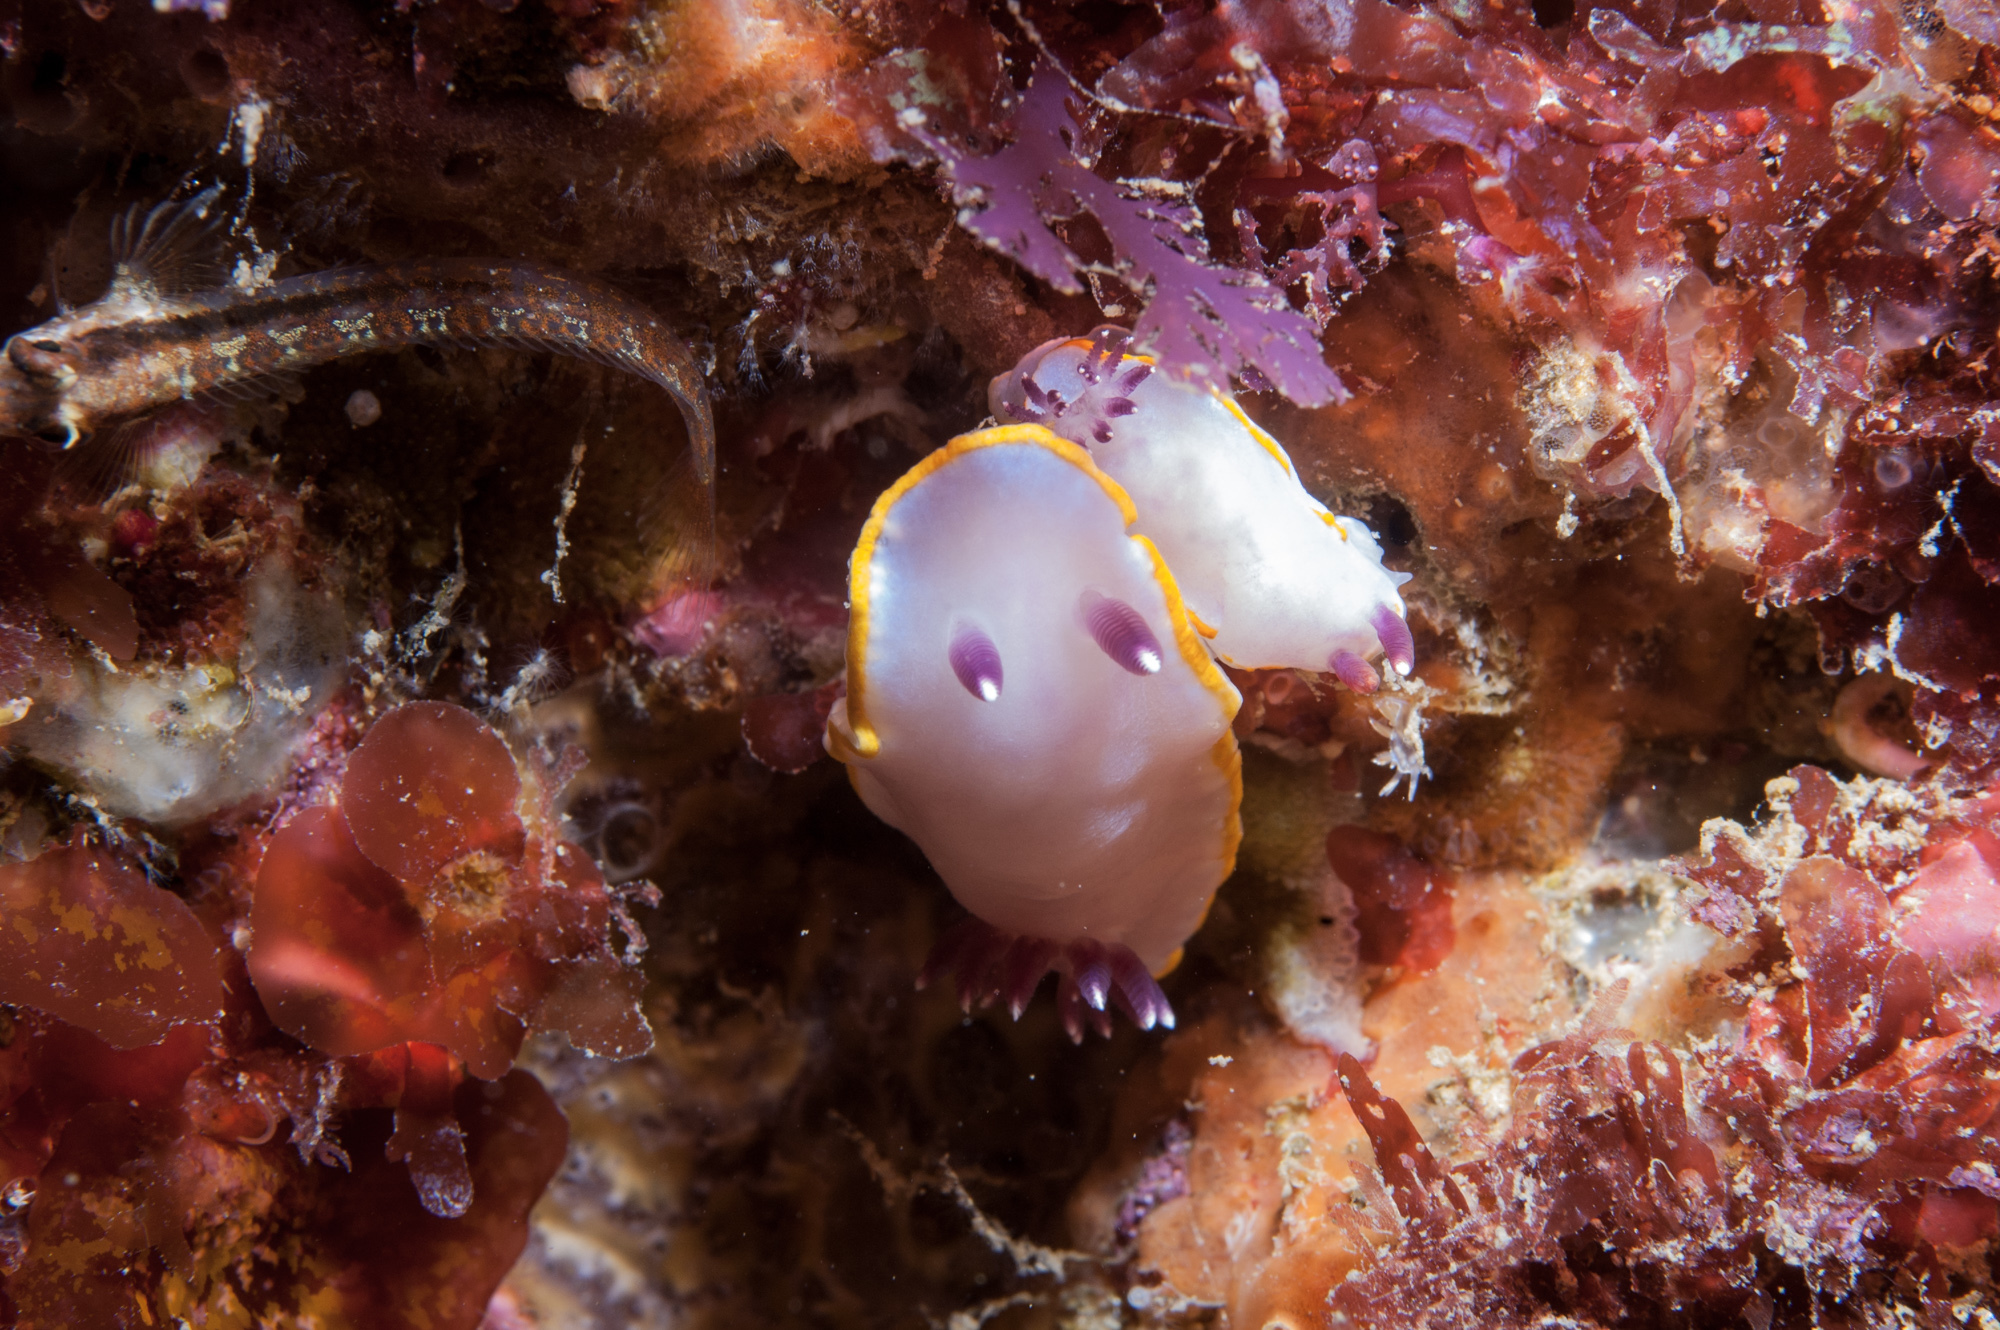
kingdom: Animalia
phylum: Mollusca
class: Gastropoda
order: Nudibranchia
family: Chromodorididae
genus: Felimida
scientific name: Felimida purpurea
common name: Pink doris
